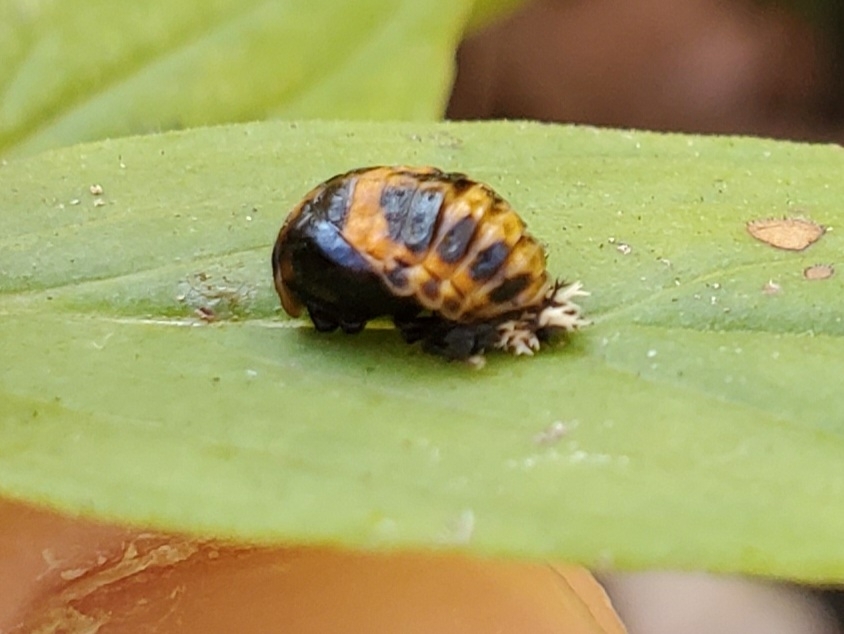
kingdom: Animalia
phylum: Arthropoda
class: Insecta
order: Coleoptera
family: Coccinellidae
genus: Harmonia
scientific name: Harmonia axyridis
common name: Harlequin ladybird
